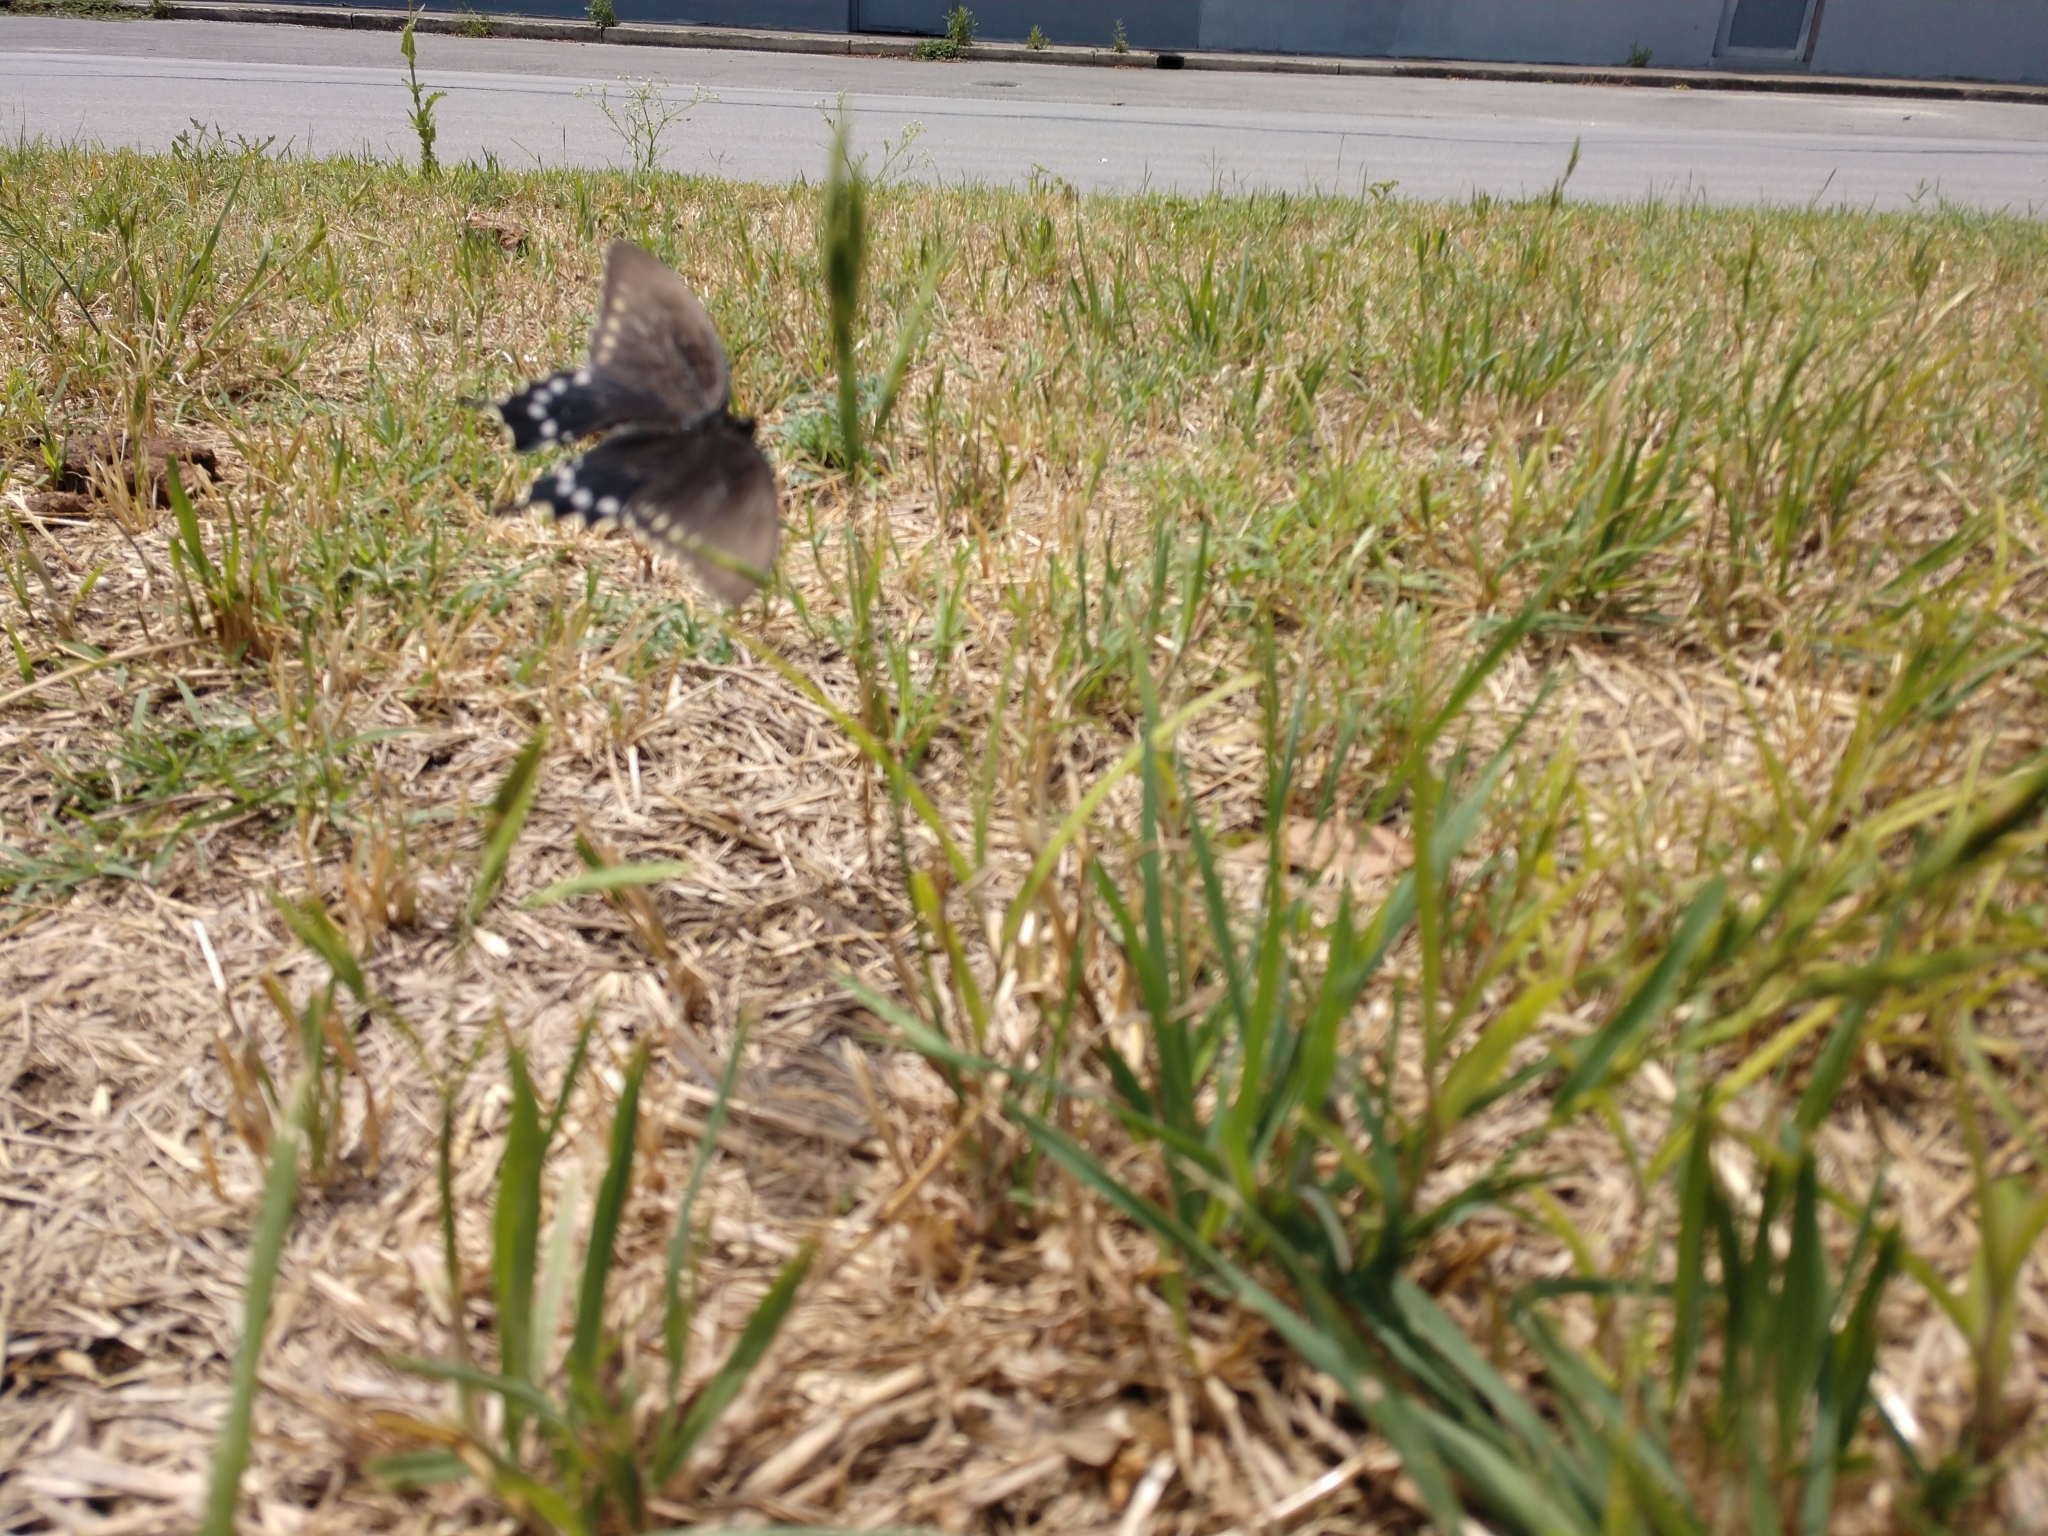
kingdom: Animalia
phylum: Arthropoda
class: Insecta
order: Lepidoptera
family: Papilionidae
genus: Battus
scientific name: Battus philenor
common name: Pipevine swallowtail
